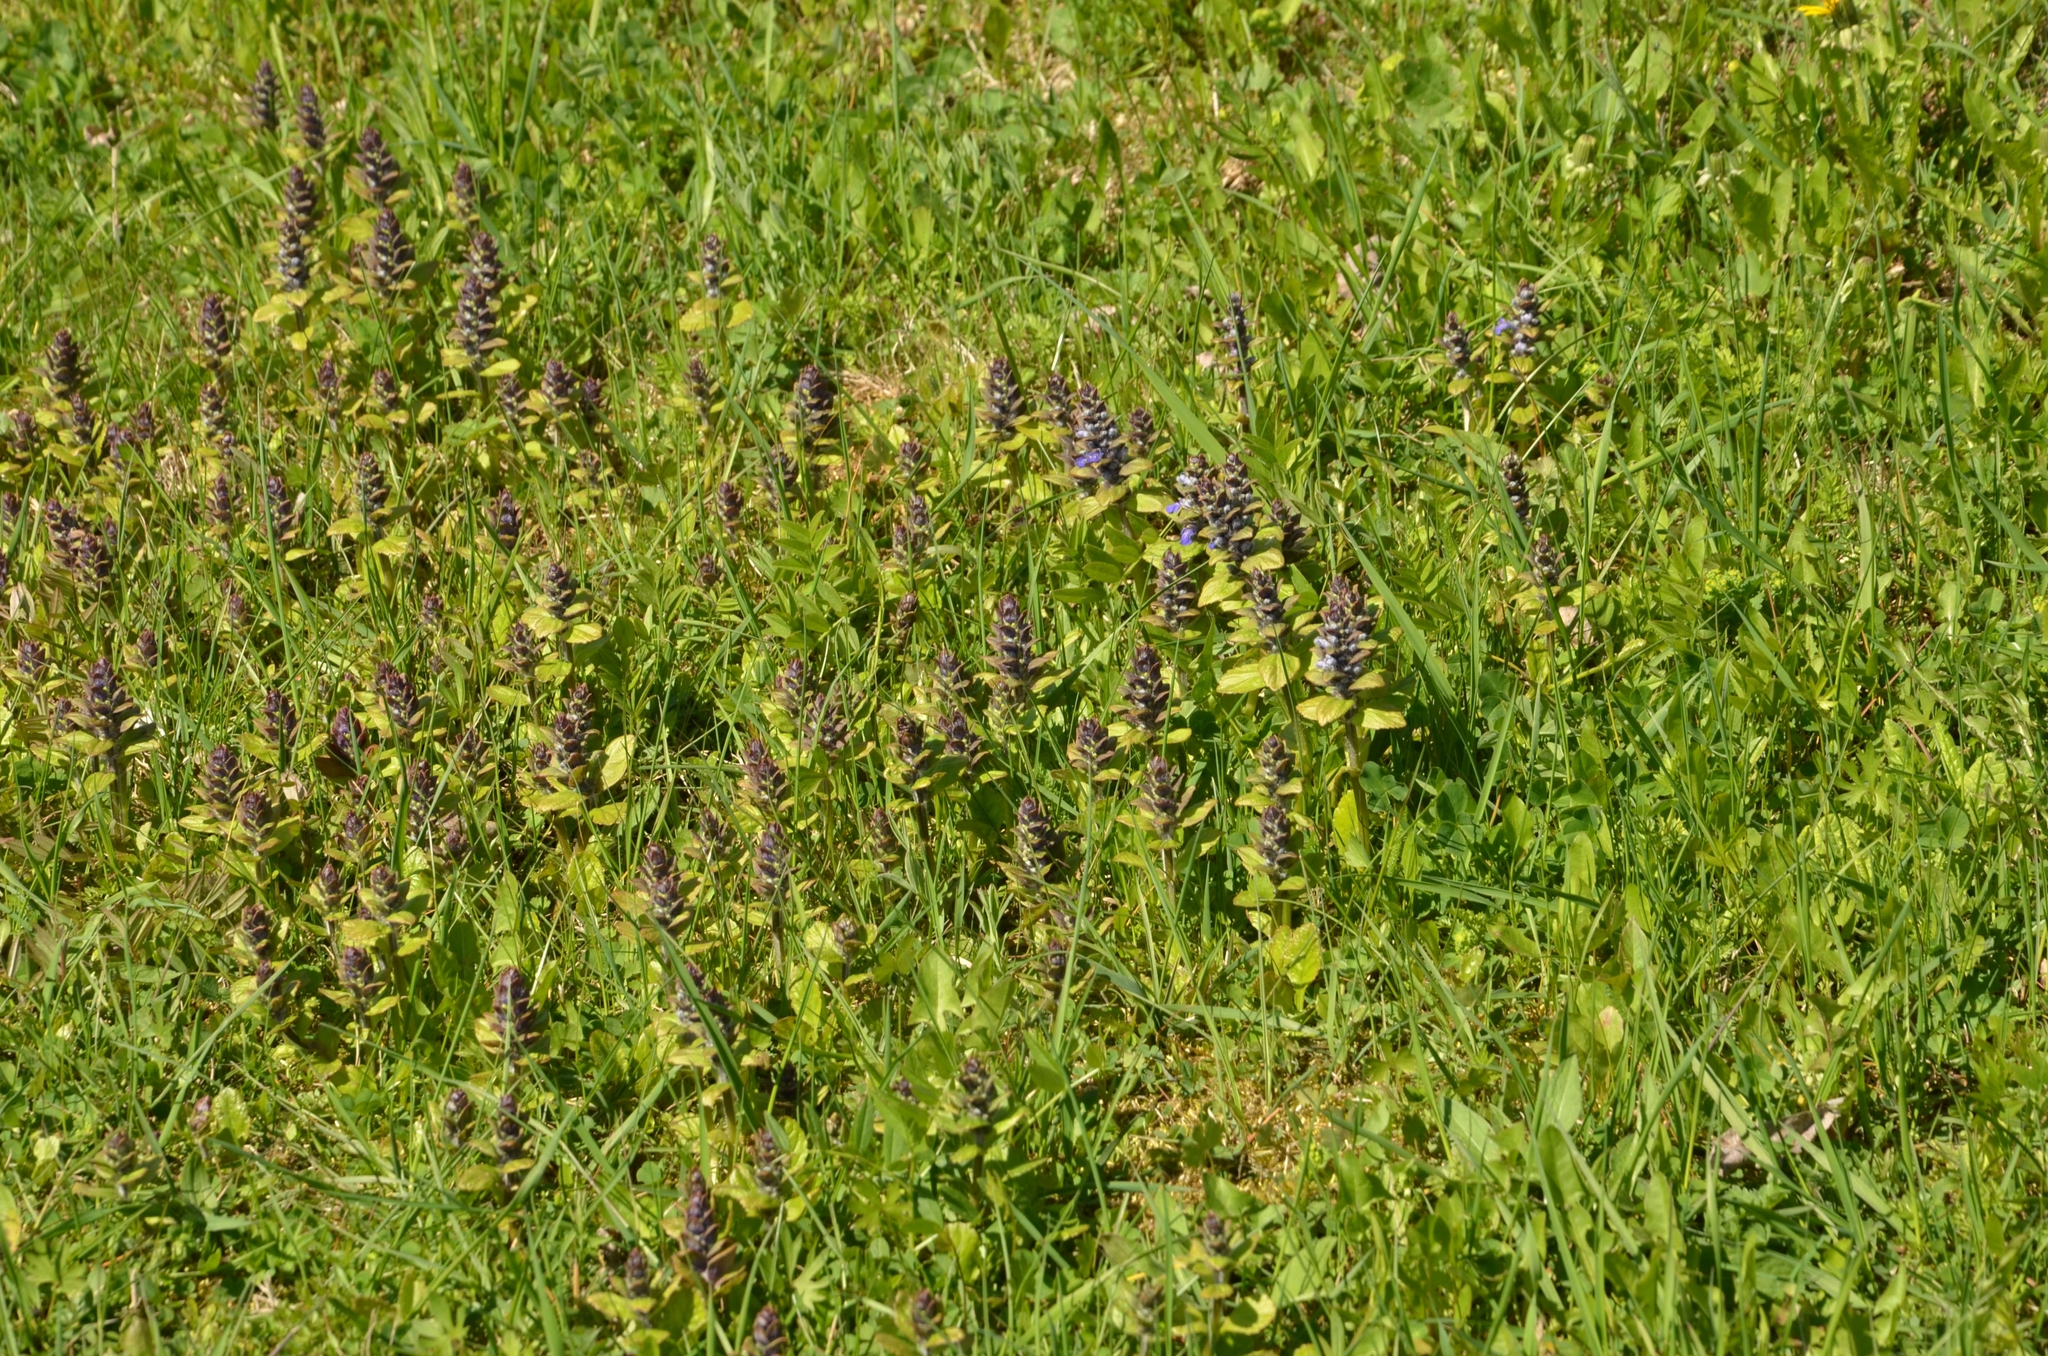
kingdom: Plantae
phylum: Tracheophyta
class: Magnoliopsida
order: Lamiales
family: Lamiaceae
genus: Ajuga
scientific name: Ajuga reptans
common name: Bugle
